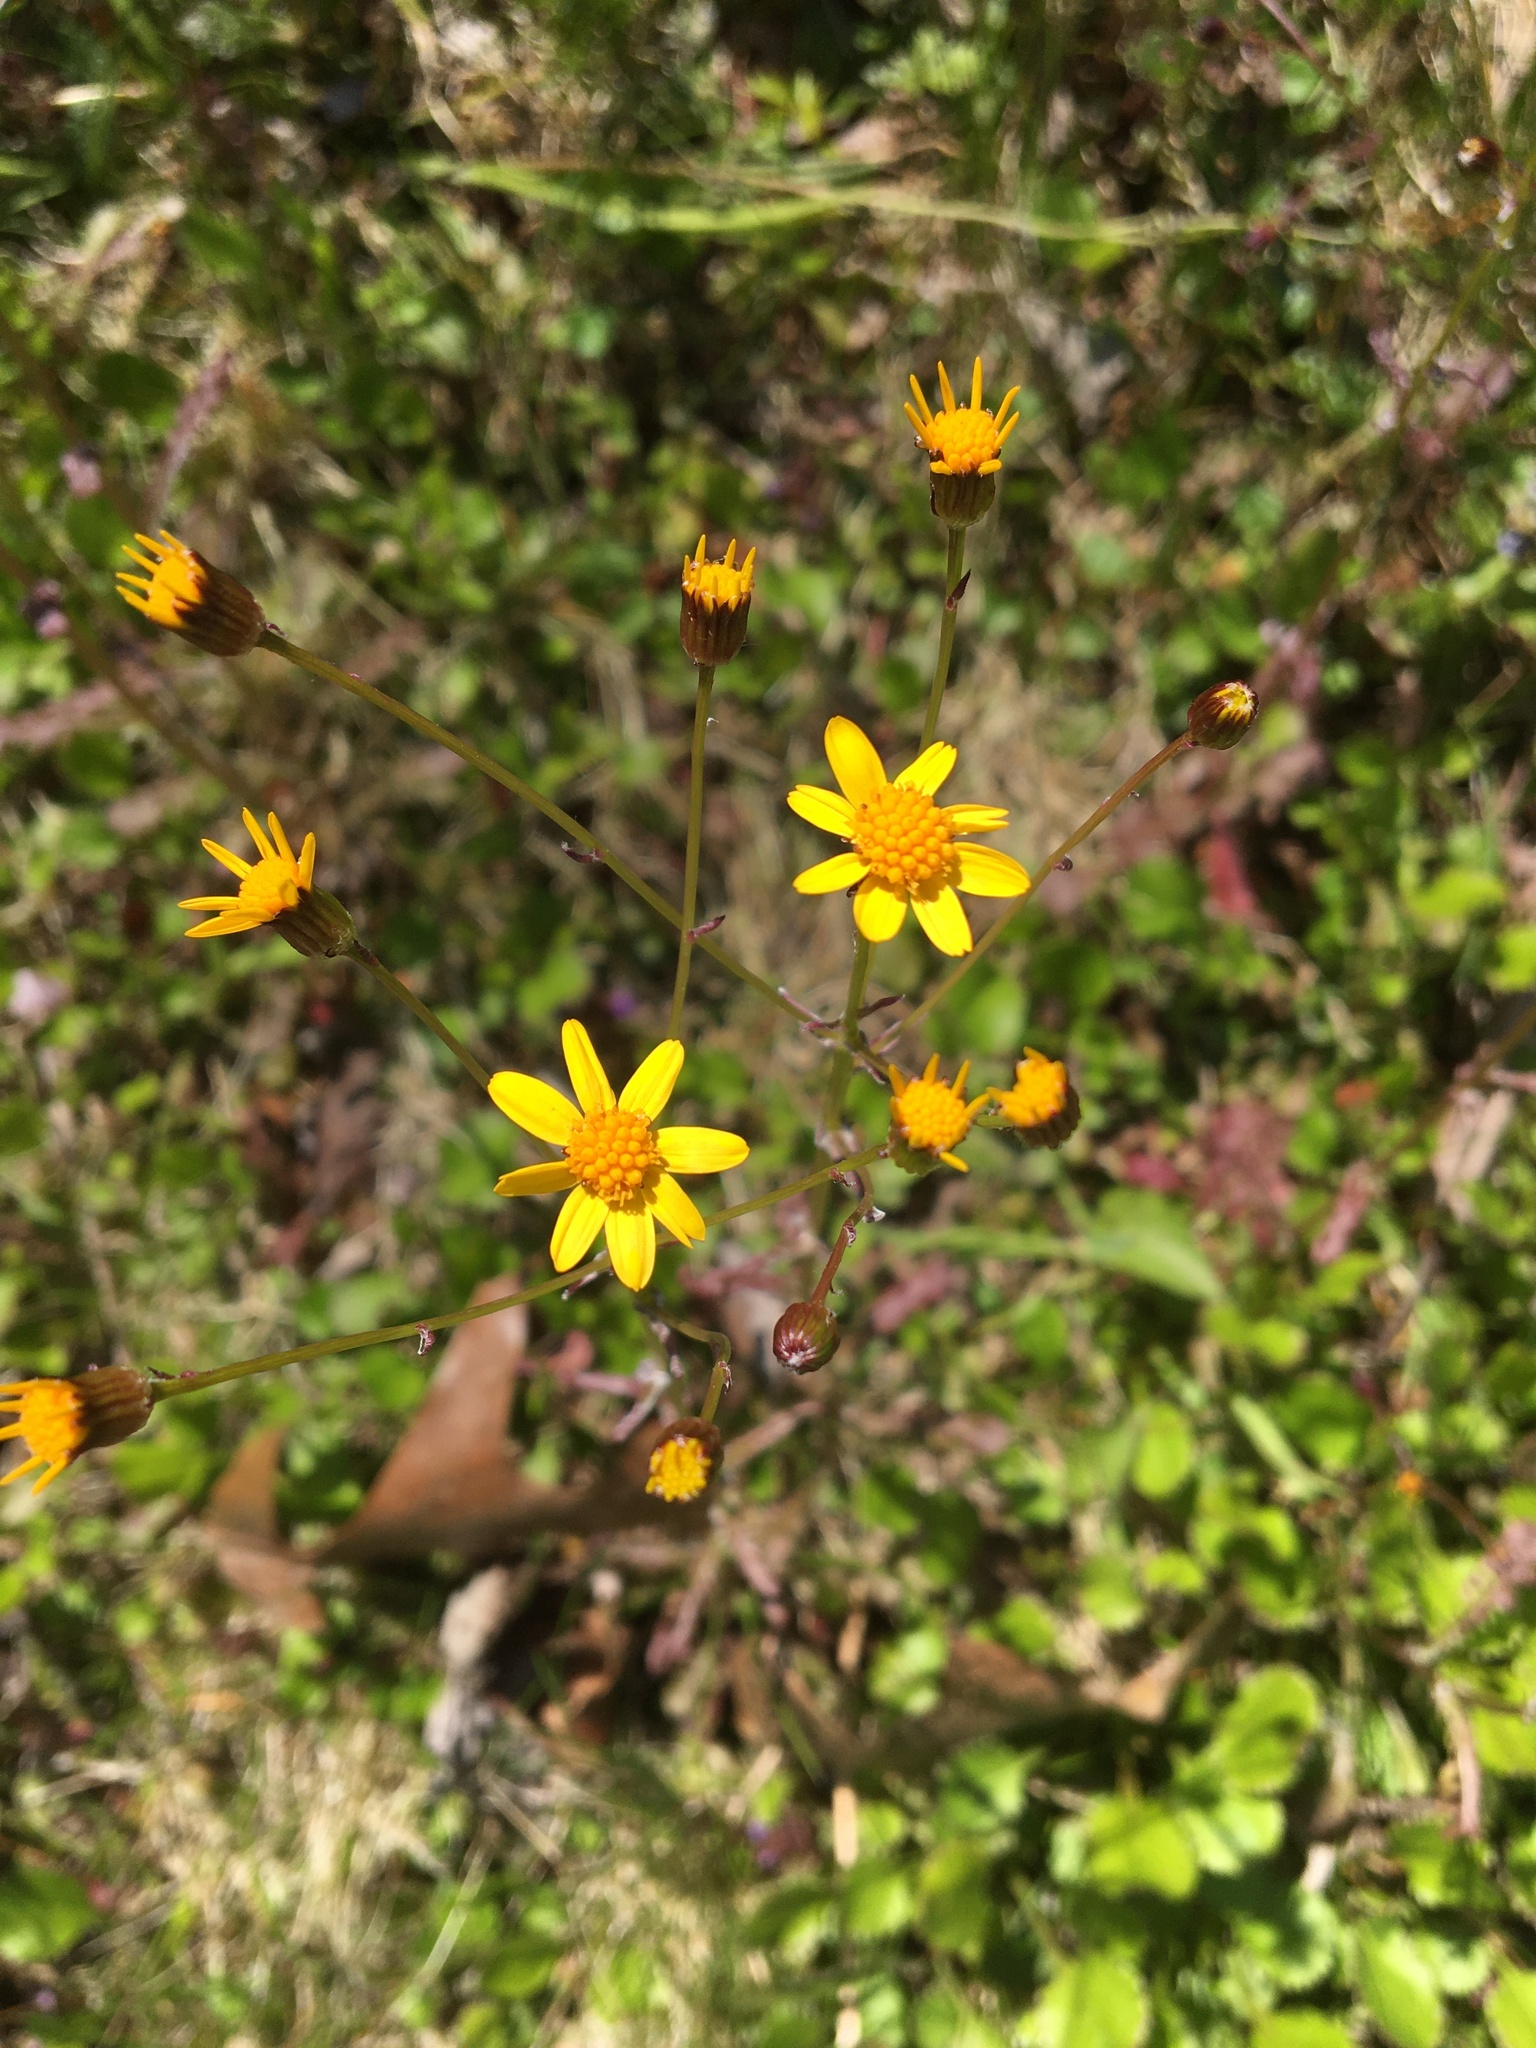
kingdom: Plantae
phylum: Tracheophyta
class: Magnoliopsida
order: Asterales
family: Asteraceae
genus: Packera
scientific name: Packera obovata
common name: Round-leaf ragwort
